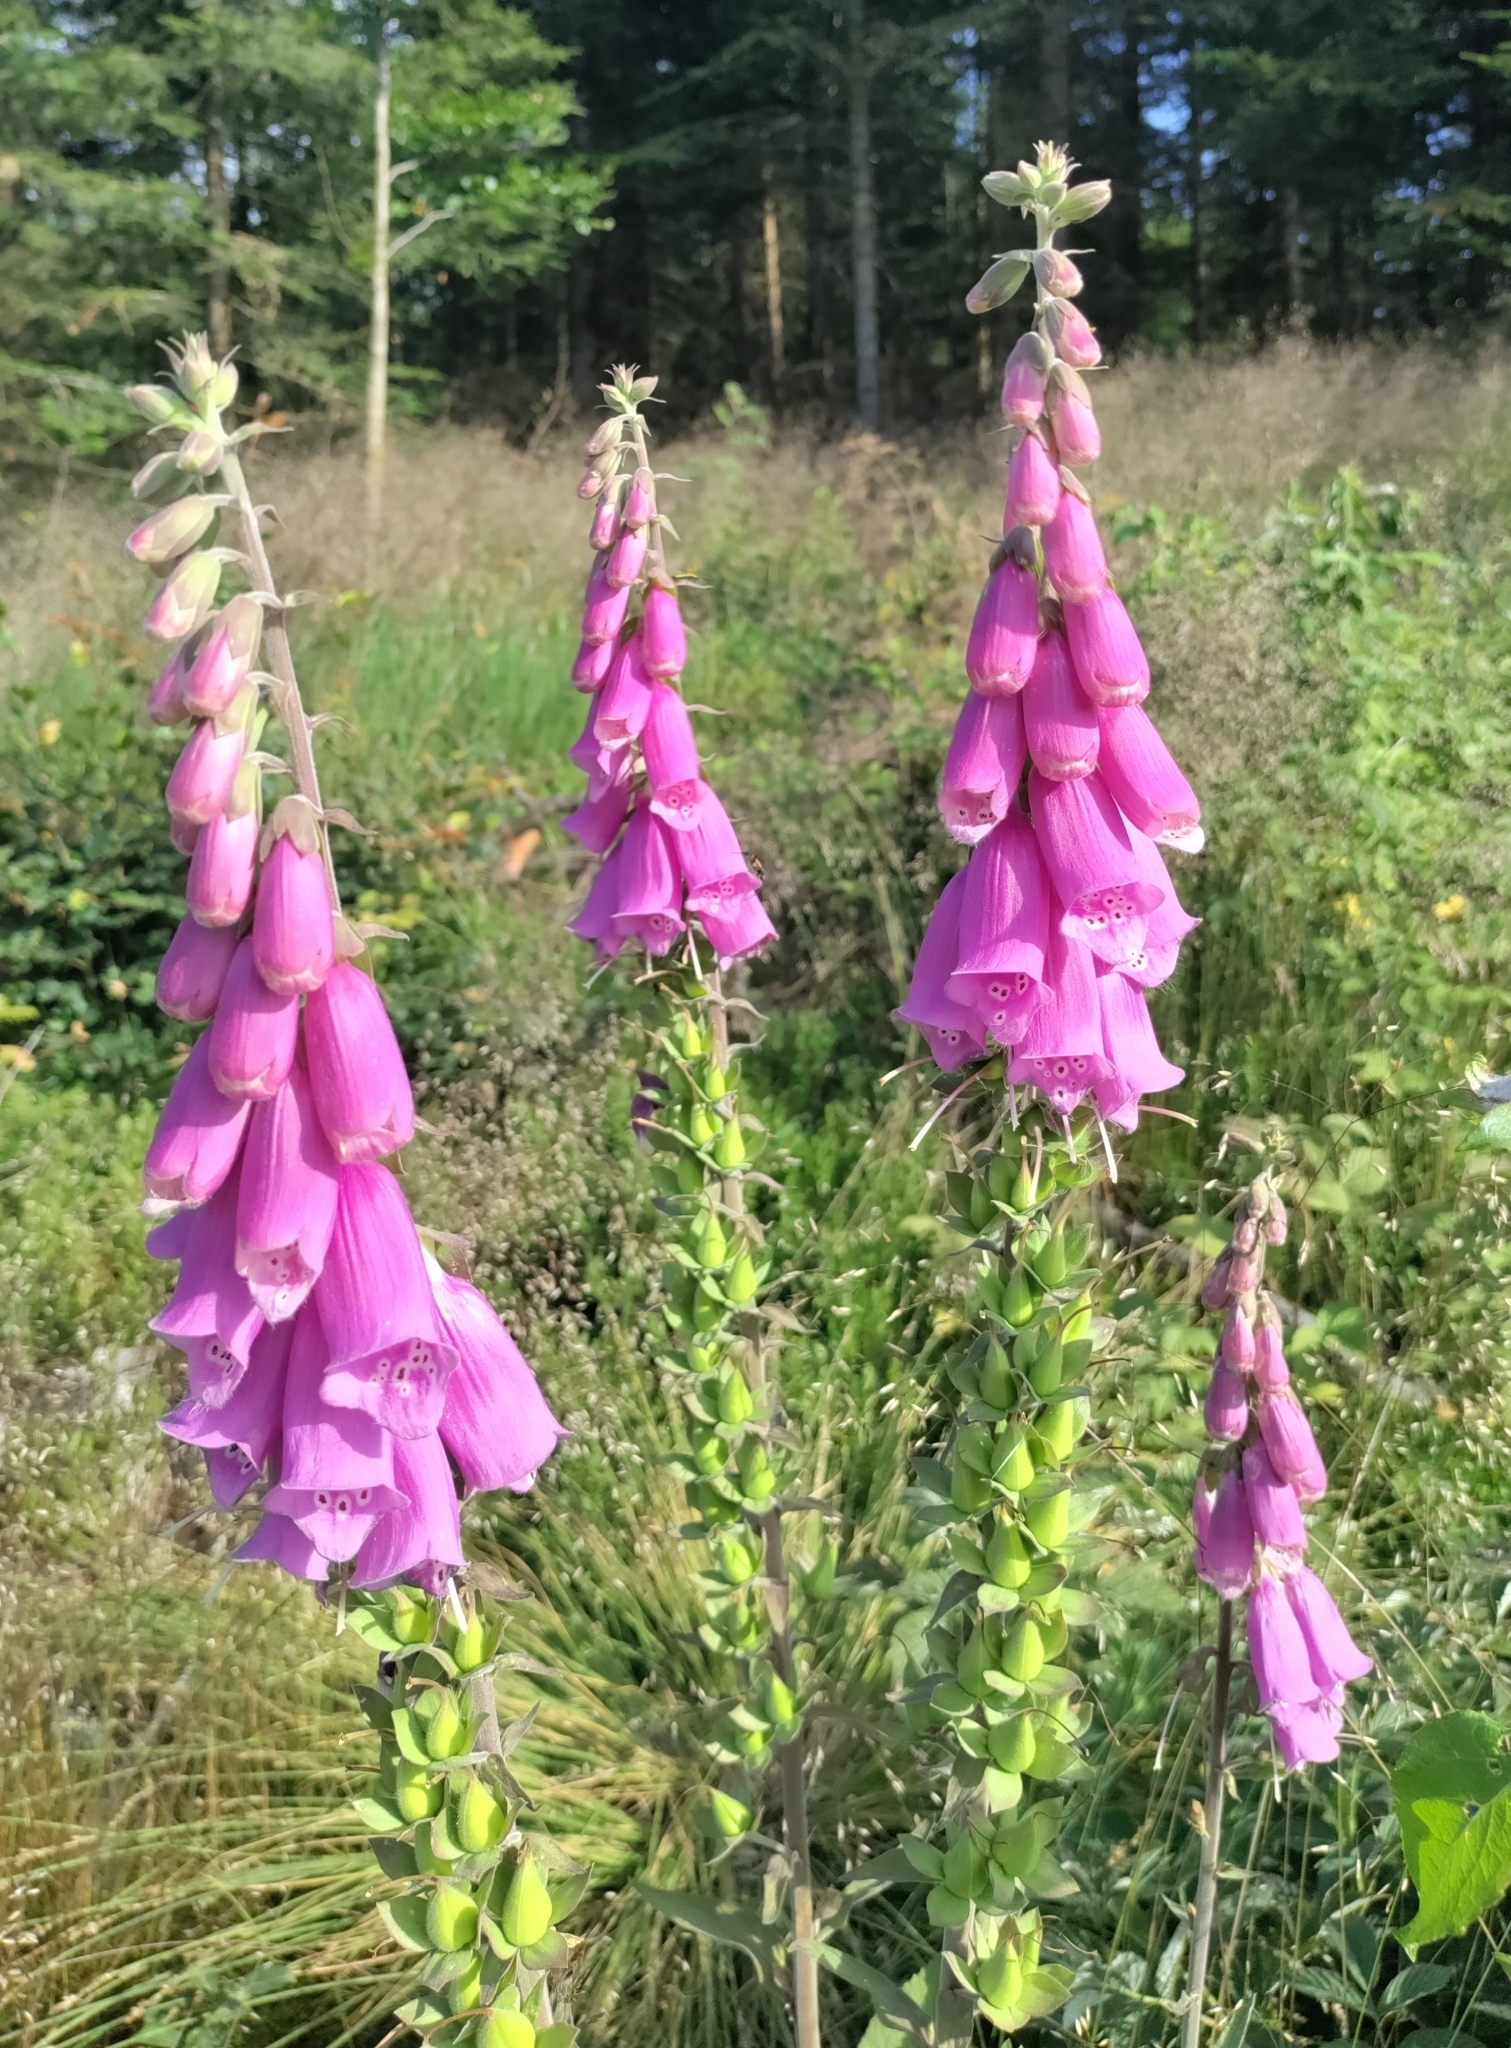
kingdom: Plantae
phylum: Tracheophyta
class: Magnoliopsida
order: Lamiales
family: Plantaginaceae
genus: Digitalis
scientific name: Digitalis purpurea
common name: Foxglove
